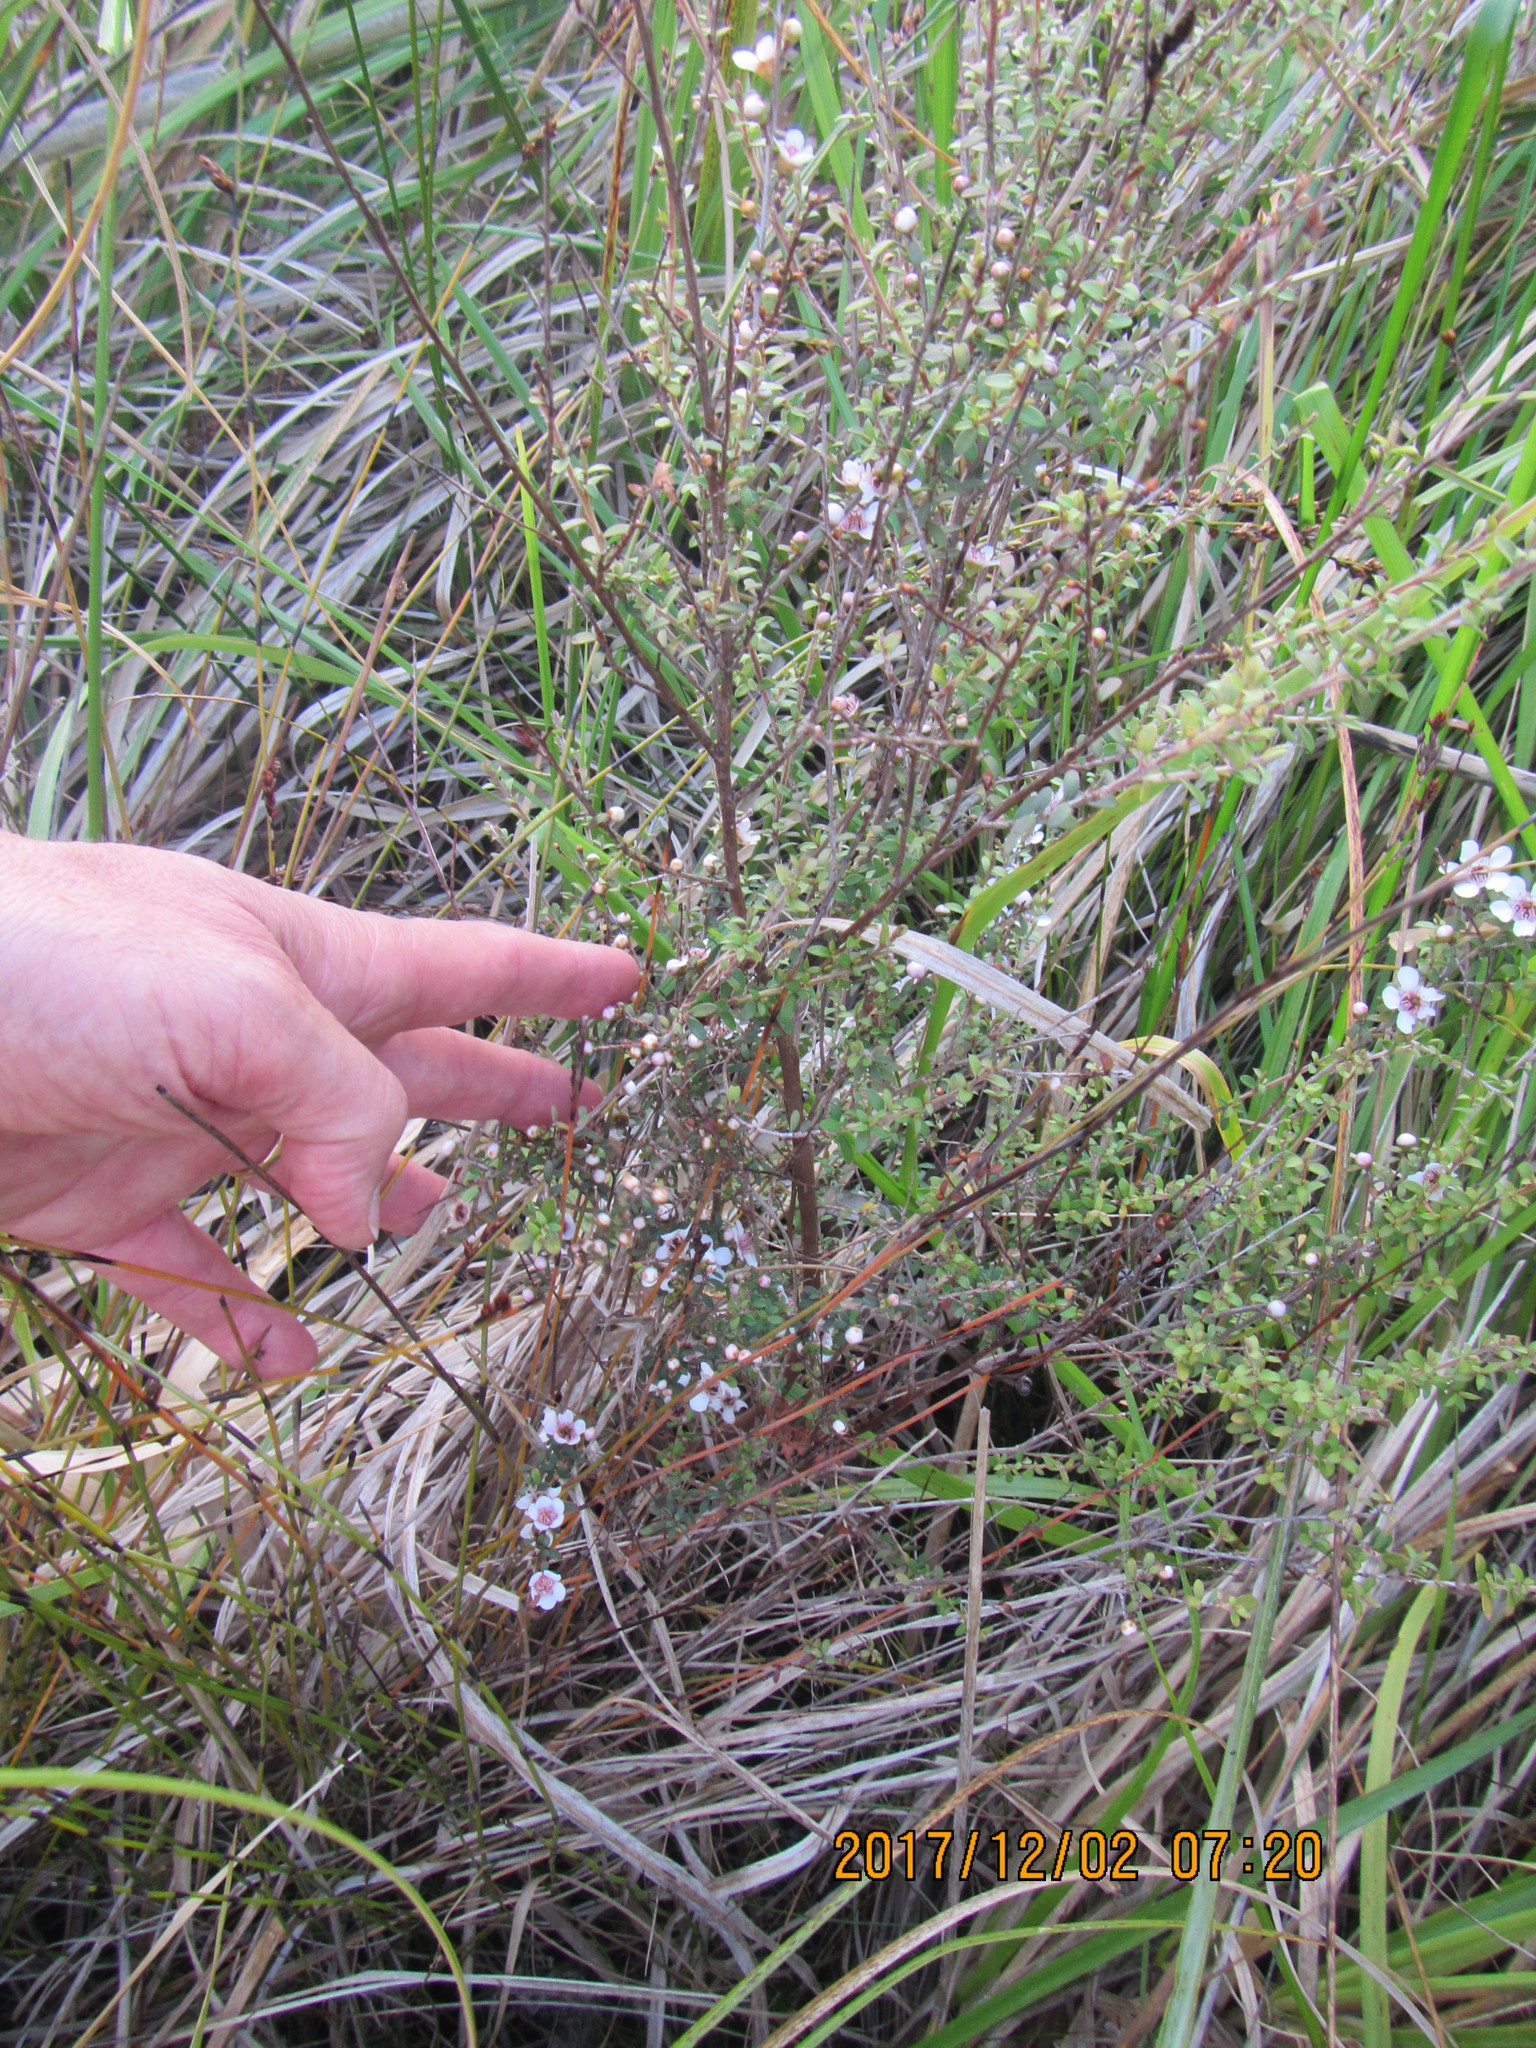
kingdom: Plantae
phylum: Tracheophyta
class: Magnoliopsida
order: Myrtales
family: Myrtaceae
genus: Leptospermum
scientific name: Leptospermum scoparium
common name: Broom tea-tree
